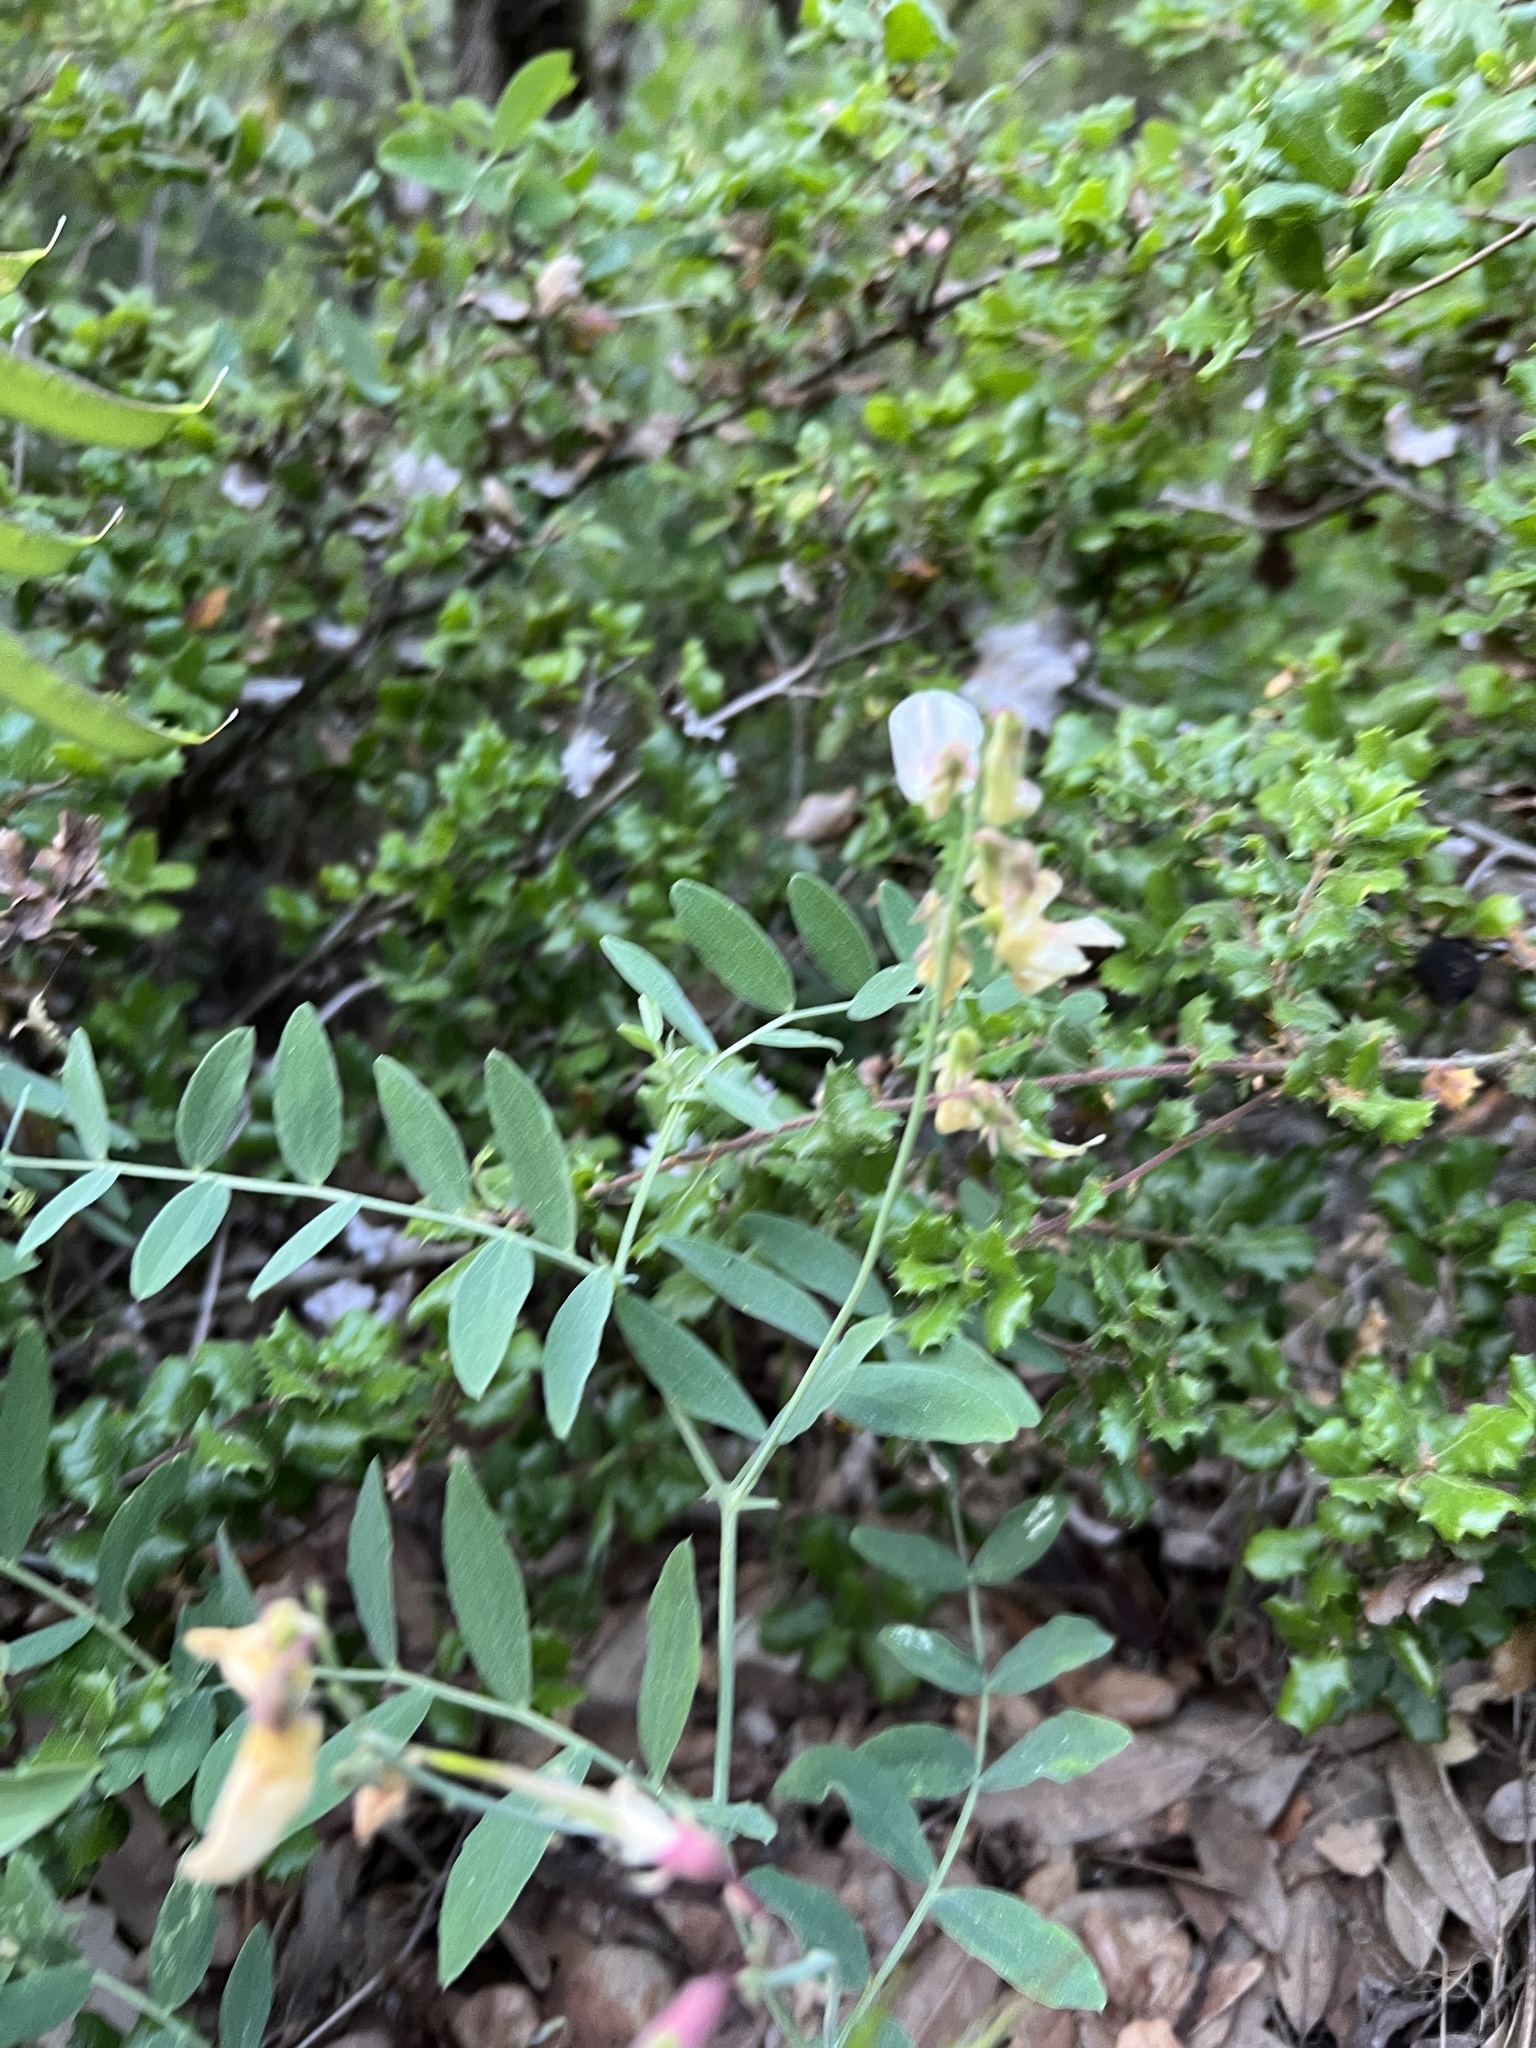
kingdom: Plantae
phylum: Tracheophyta
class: Magnoliopsida
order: Fabales
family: Fabaceae
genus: Lathyrus
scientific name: Lathyrus vestitus
